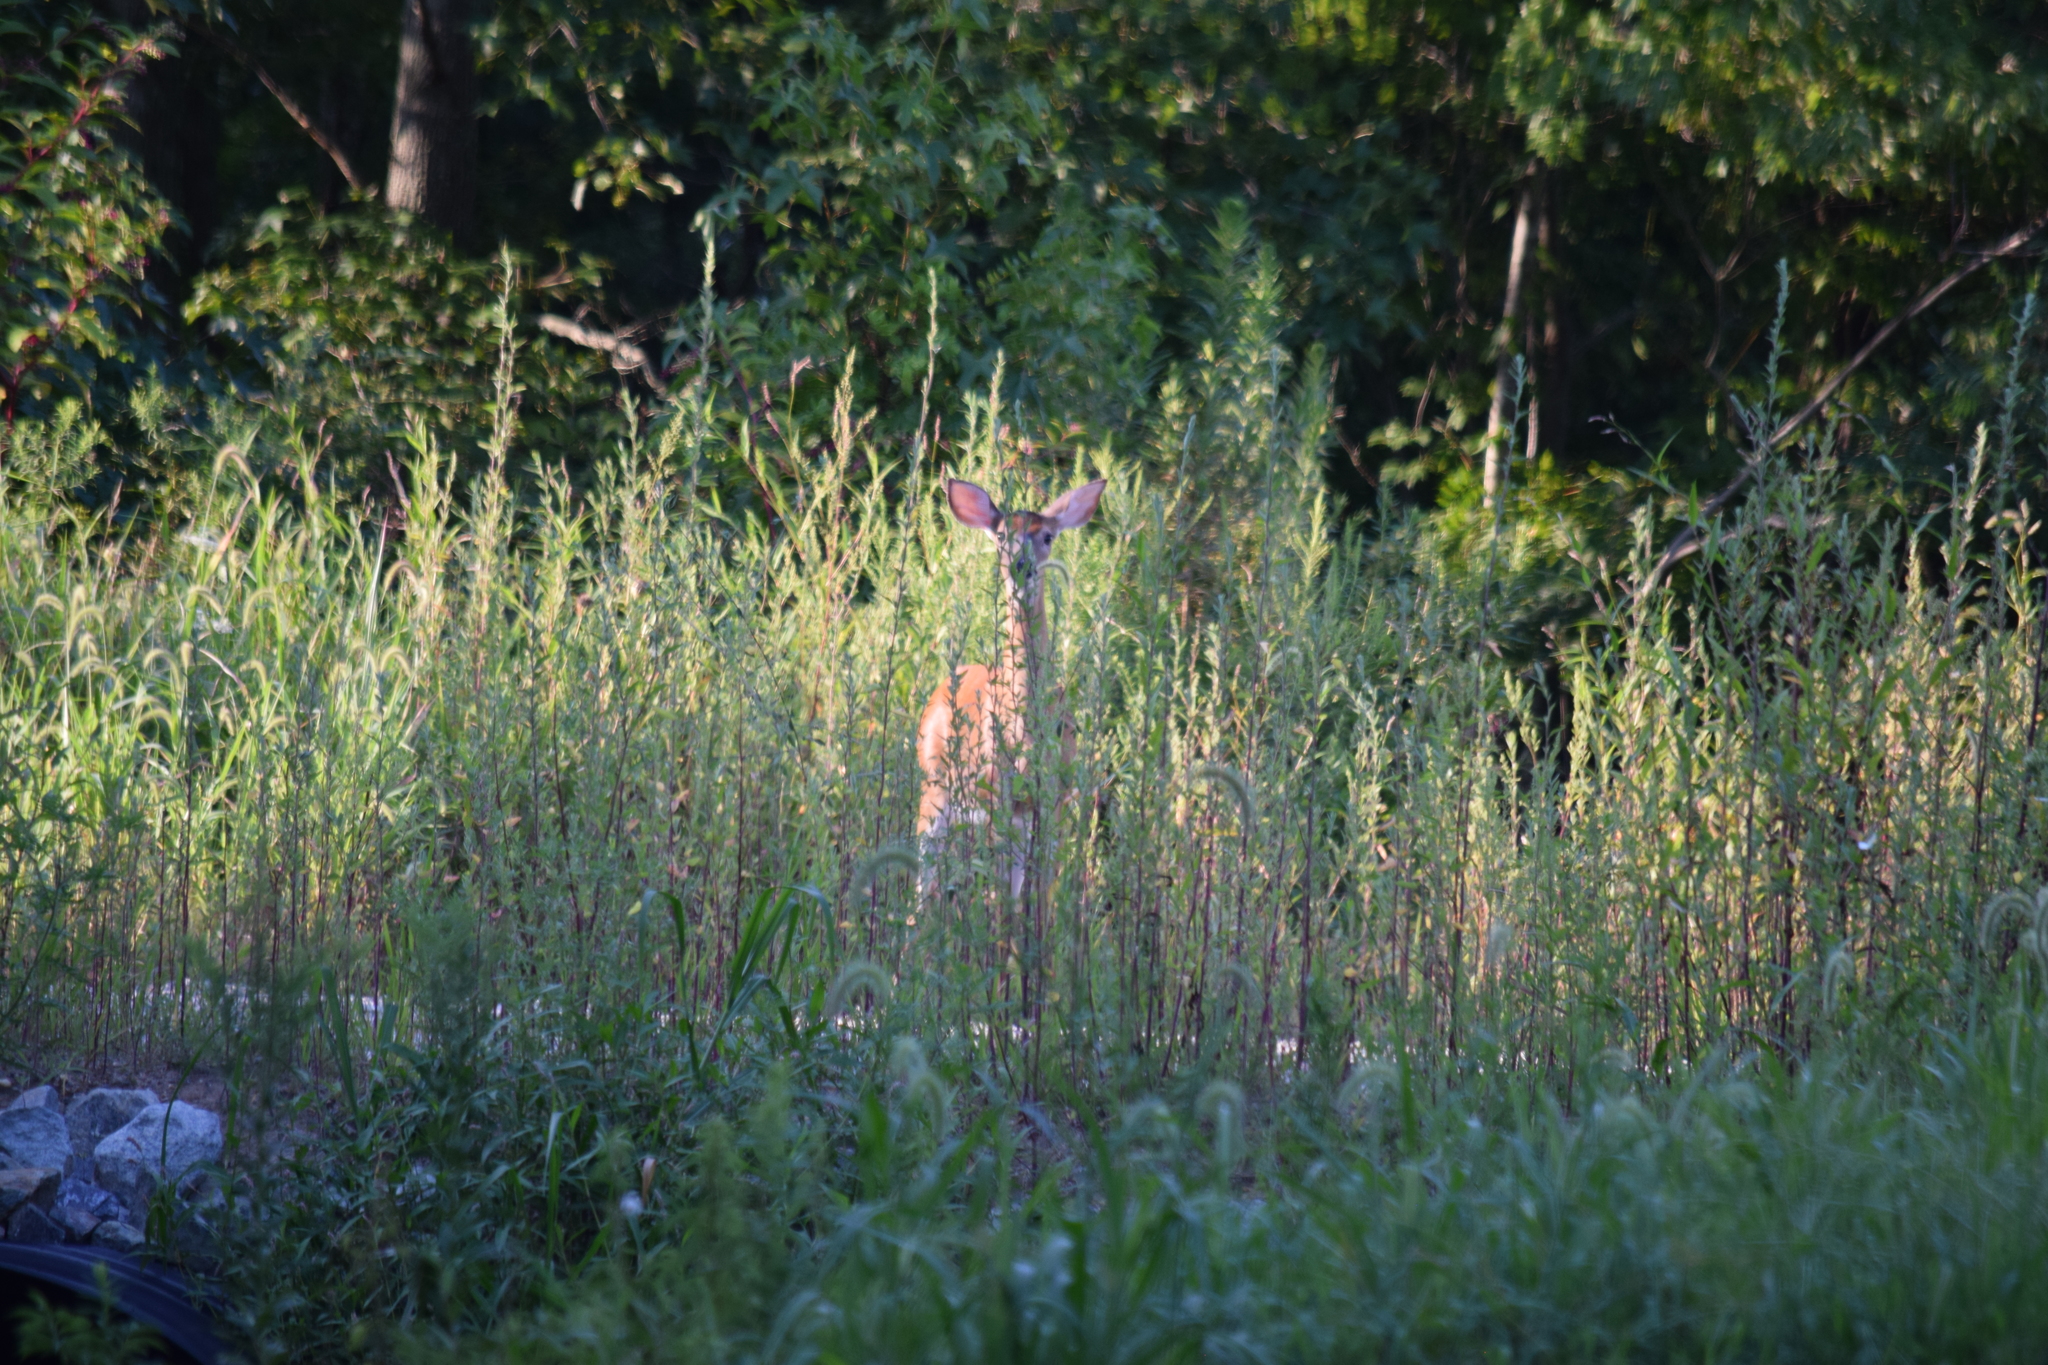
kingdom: Animalia
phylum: Chordata
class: Mammalia
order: Artiodactyla
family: Cervidae
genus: Odocoileus
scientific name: Odocoileus virginianus
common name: White-tailed deer
